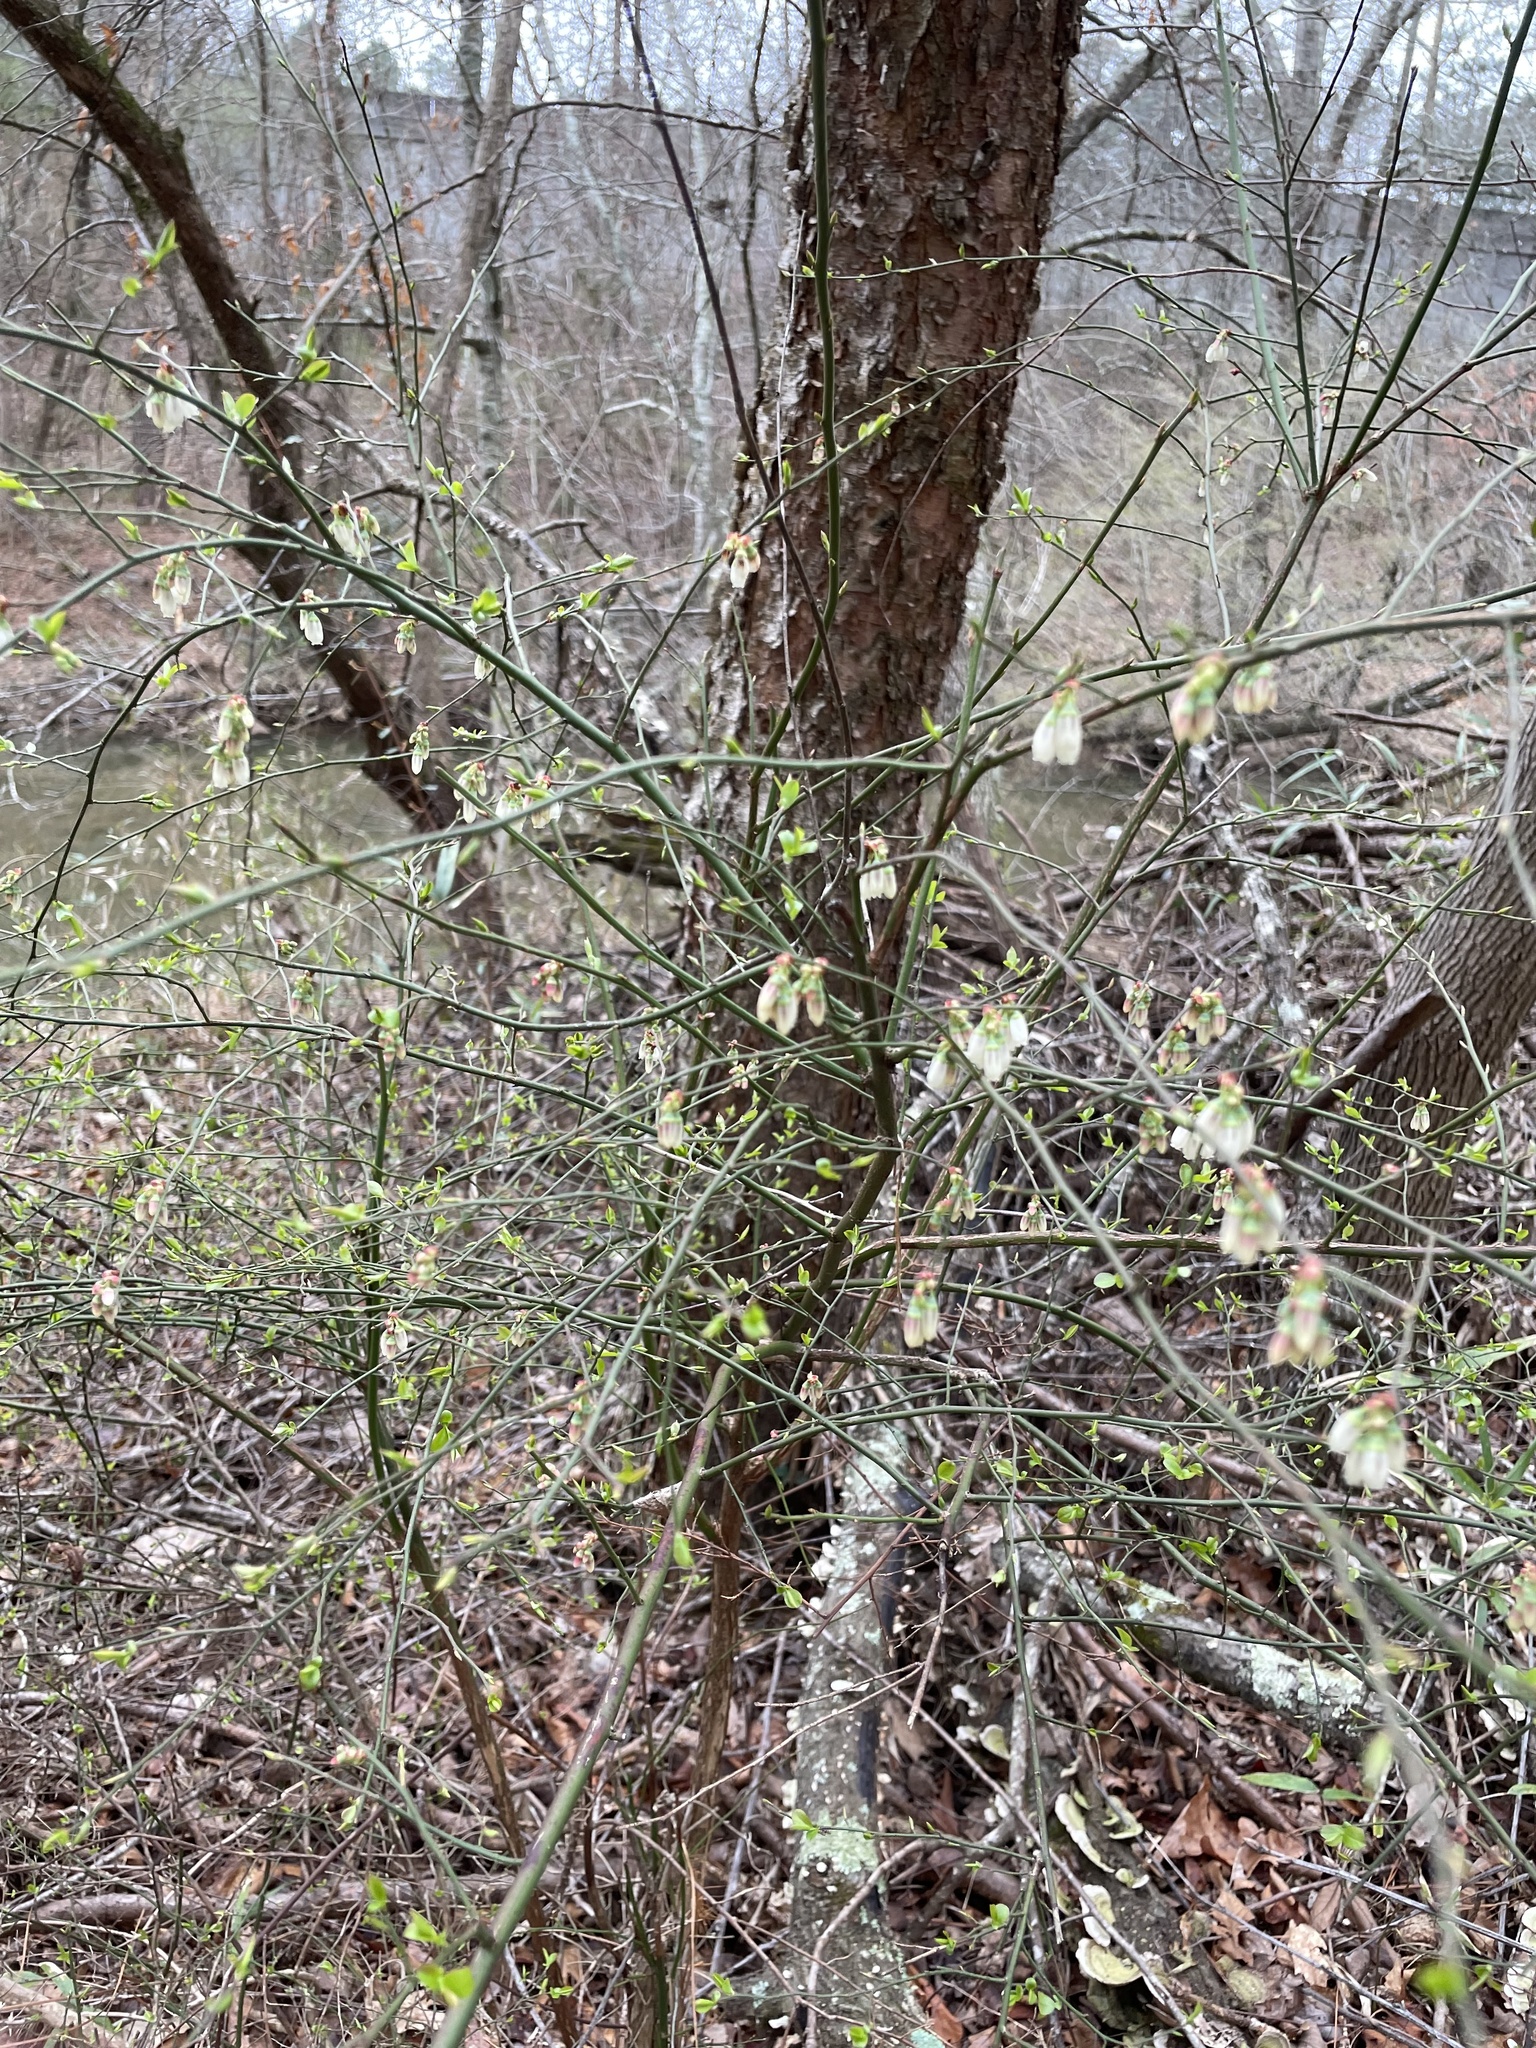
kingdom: Plantae
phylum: Tracheophyta
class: Magnoliopsida
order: Ericales
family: Ericaceae
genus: Vaccinium
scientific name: Vaccinium corymbosum
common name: Blueberry
